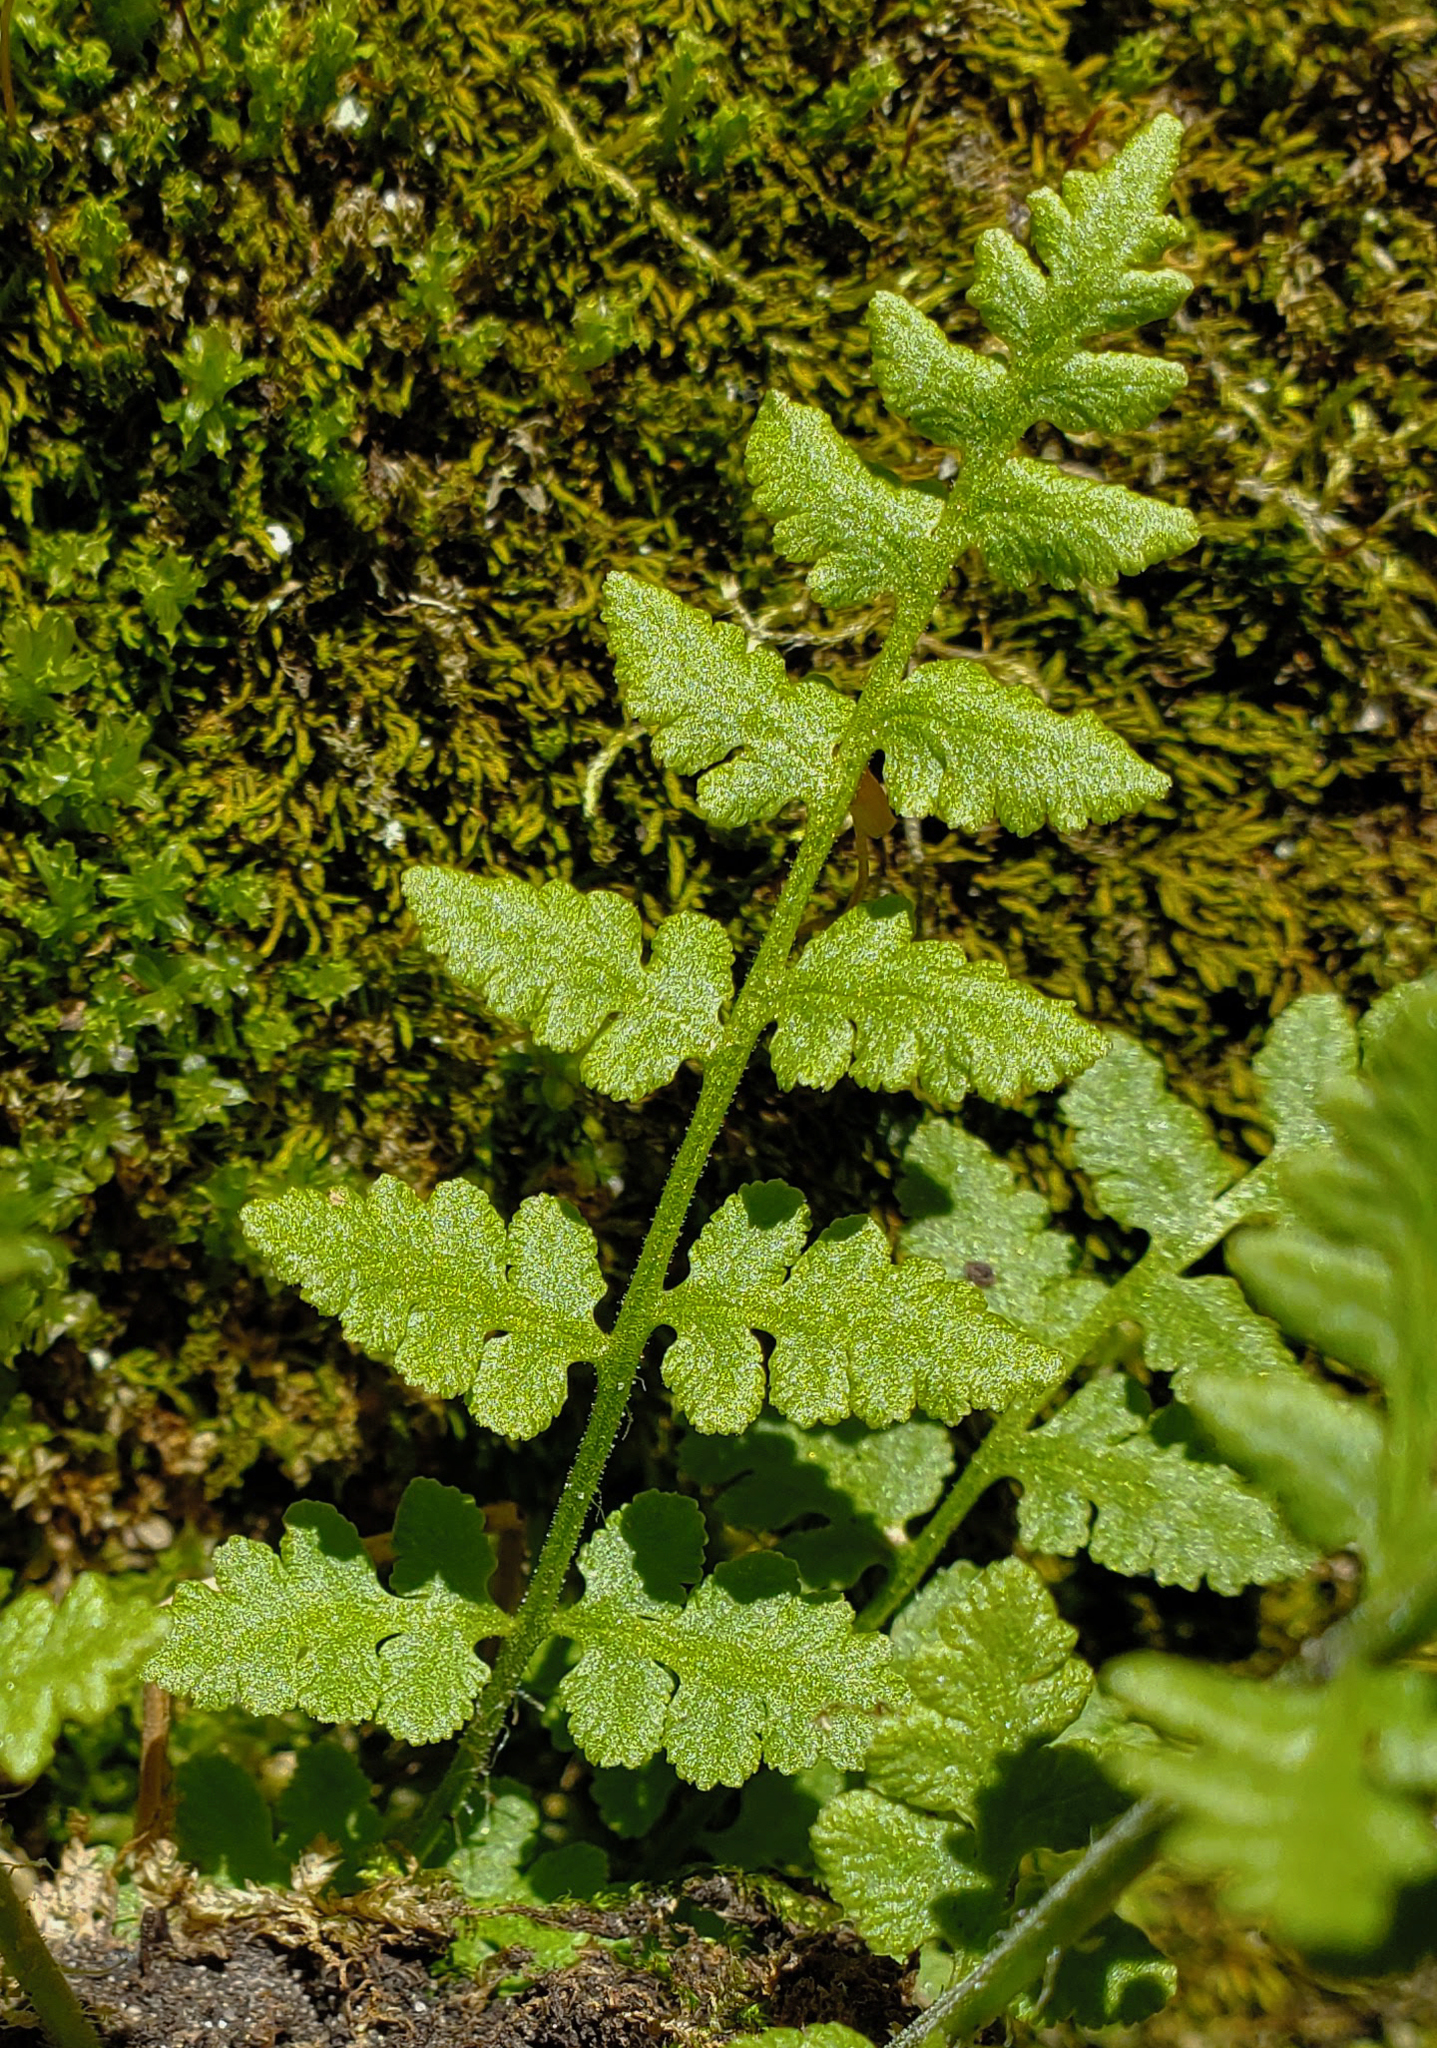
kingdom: Plantae
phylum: Tracheophyta
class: Polypodiopsida
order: Polypodiales
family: Woodsiaceae
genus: Physematium
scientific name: Physematium obtusum
